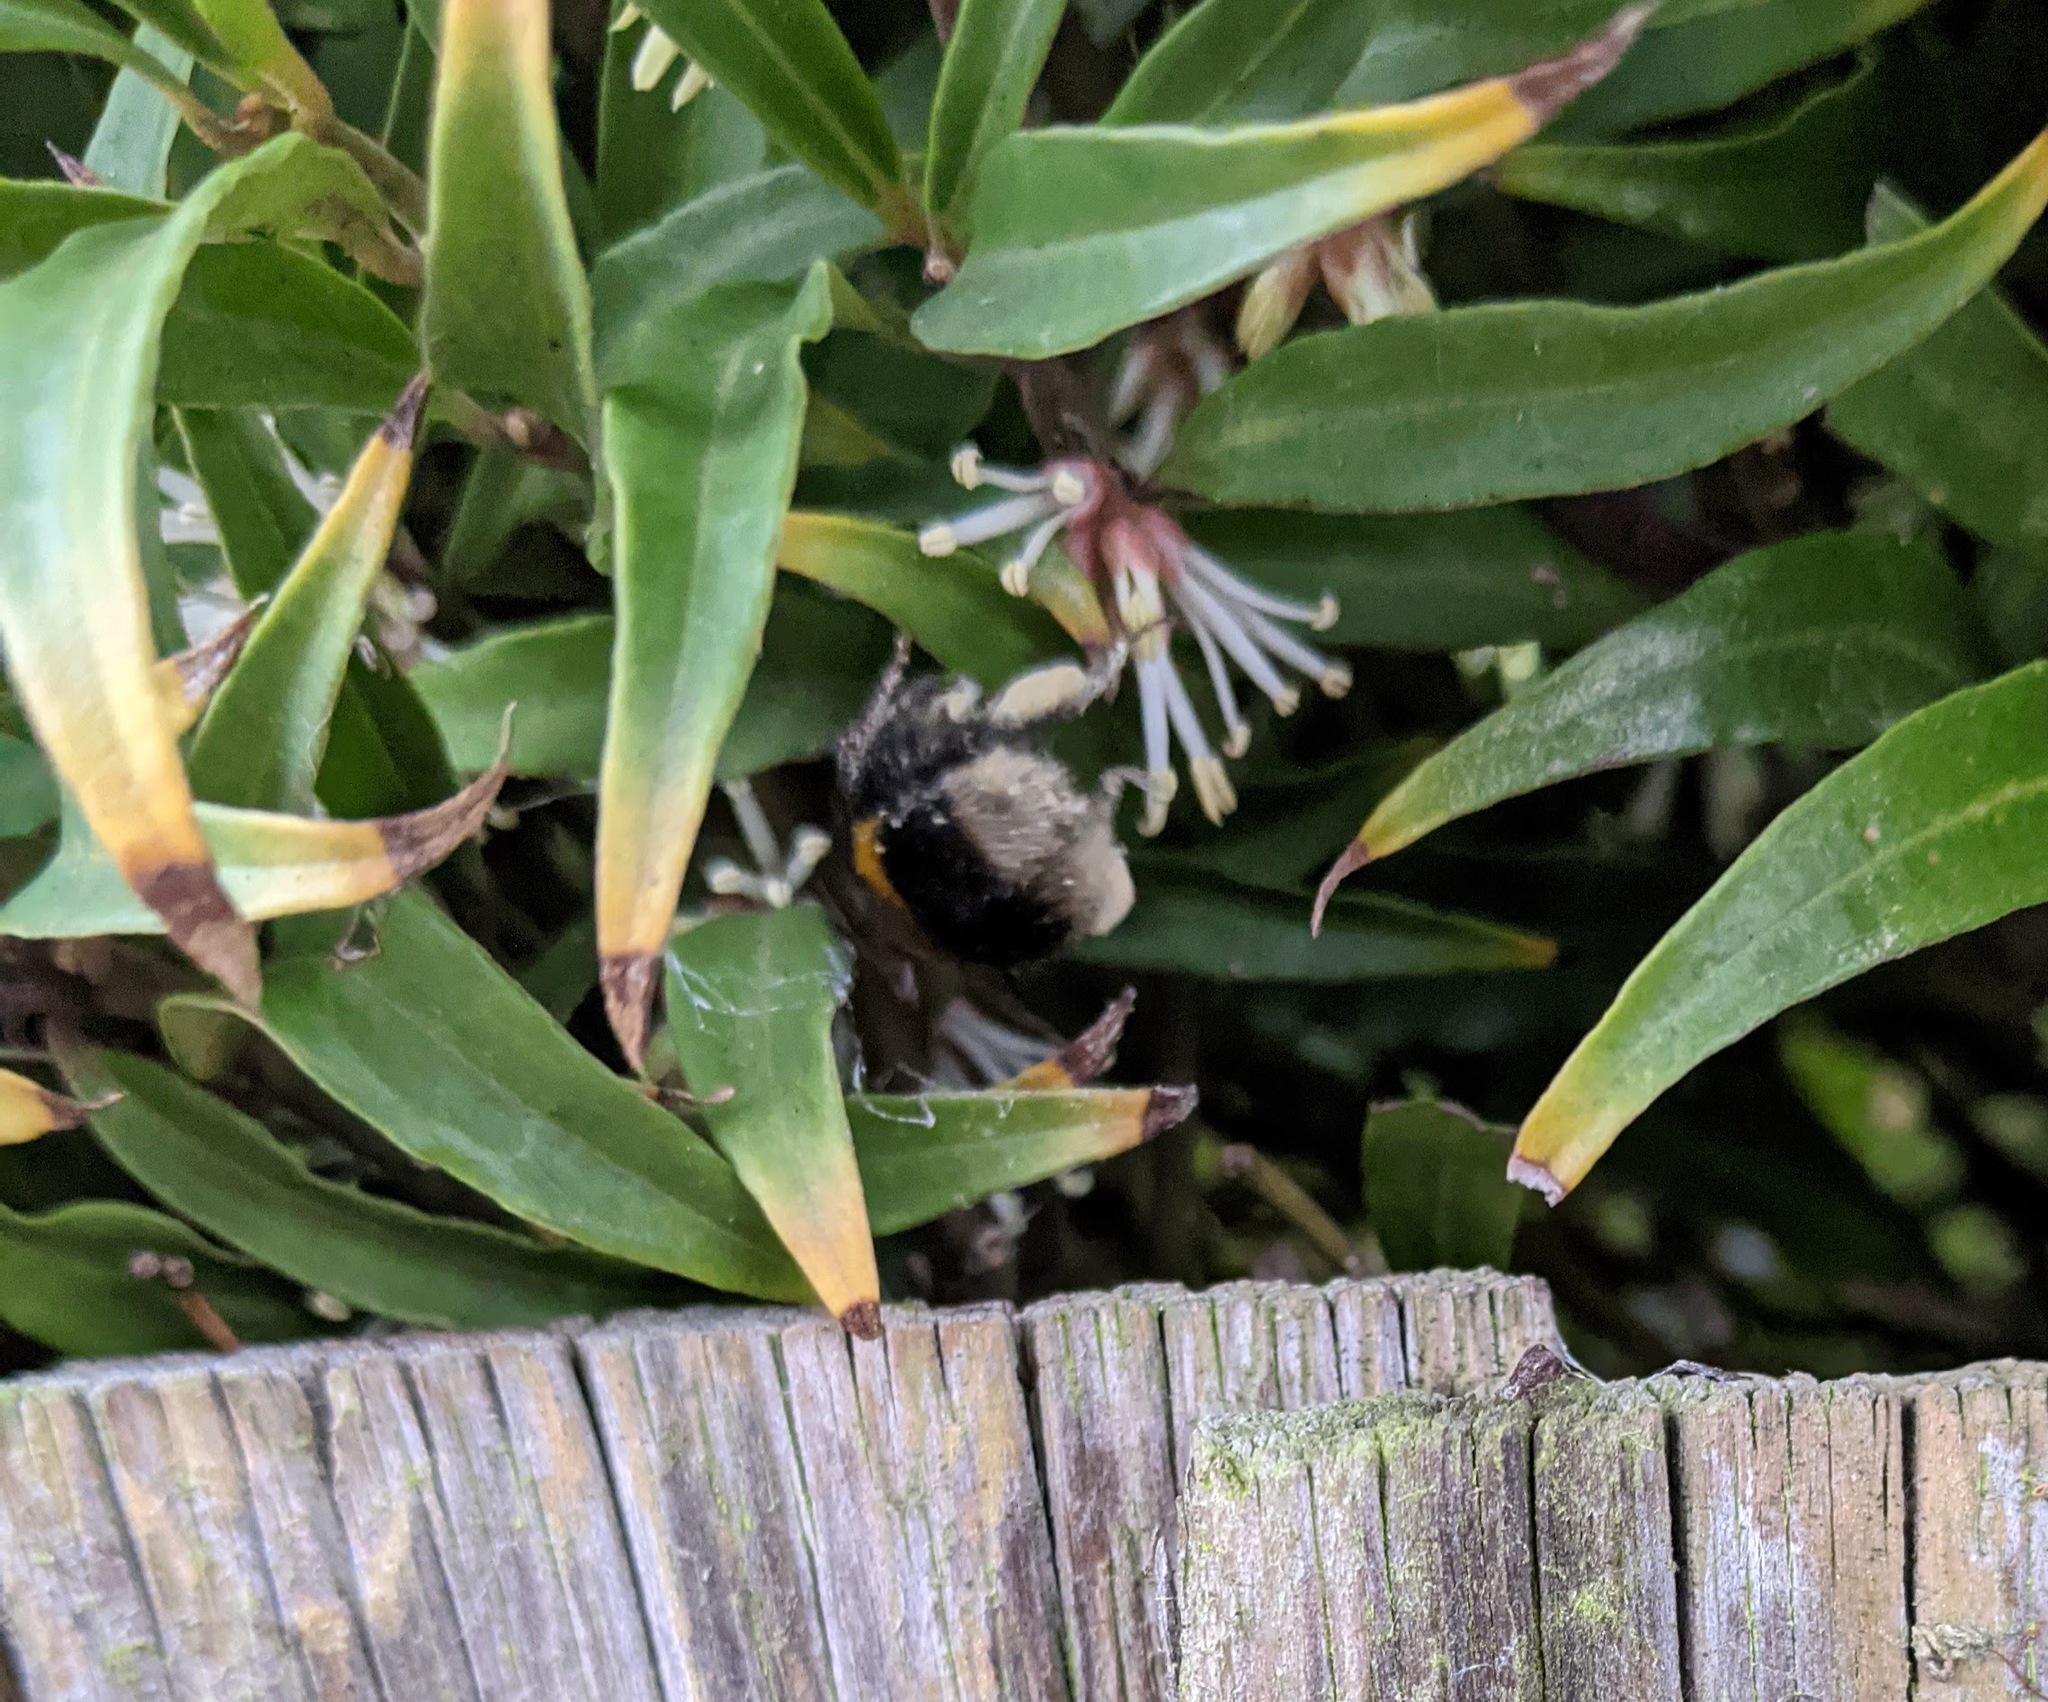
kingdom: Animalia
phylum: Arthropoda
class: Insecta
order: Hymenoptera
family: Apidae
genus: Bombus
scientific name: Bombus terrestris
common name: Buff-tailed bumblebee
